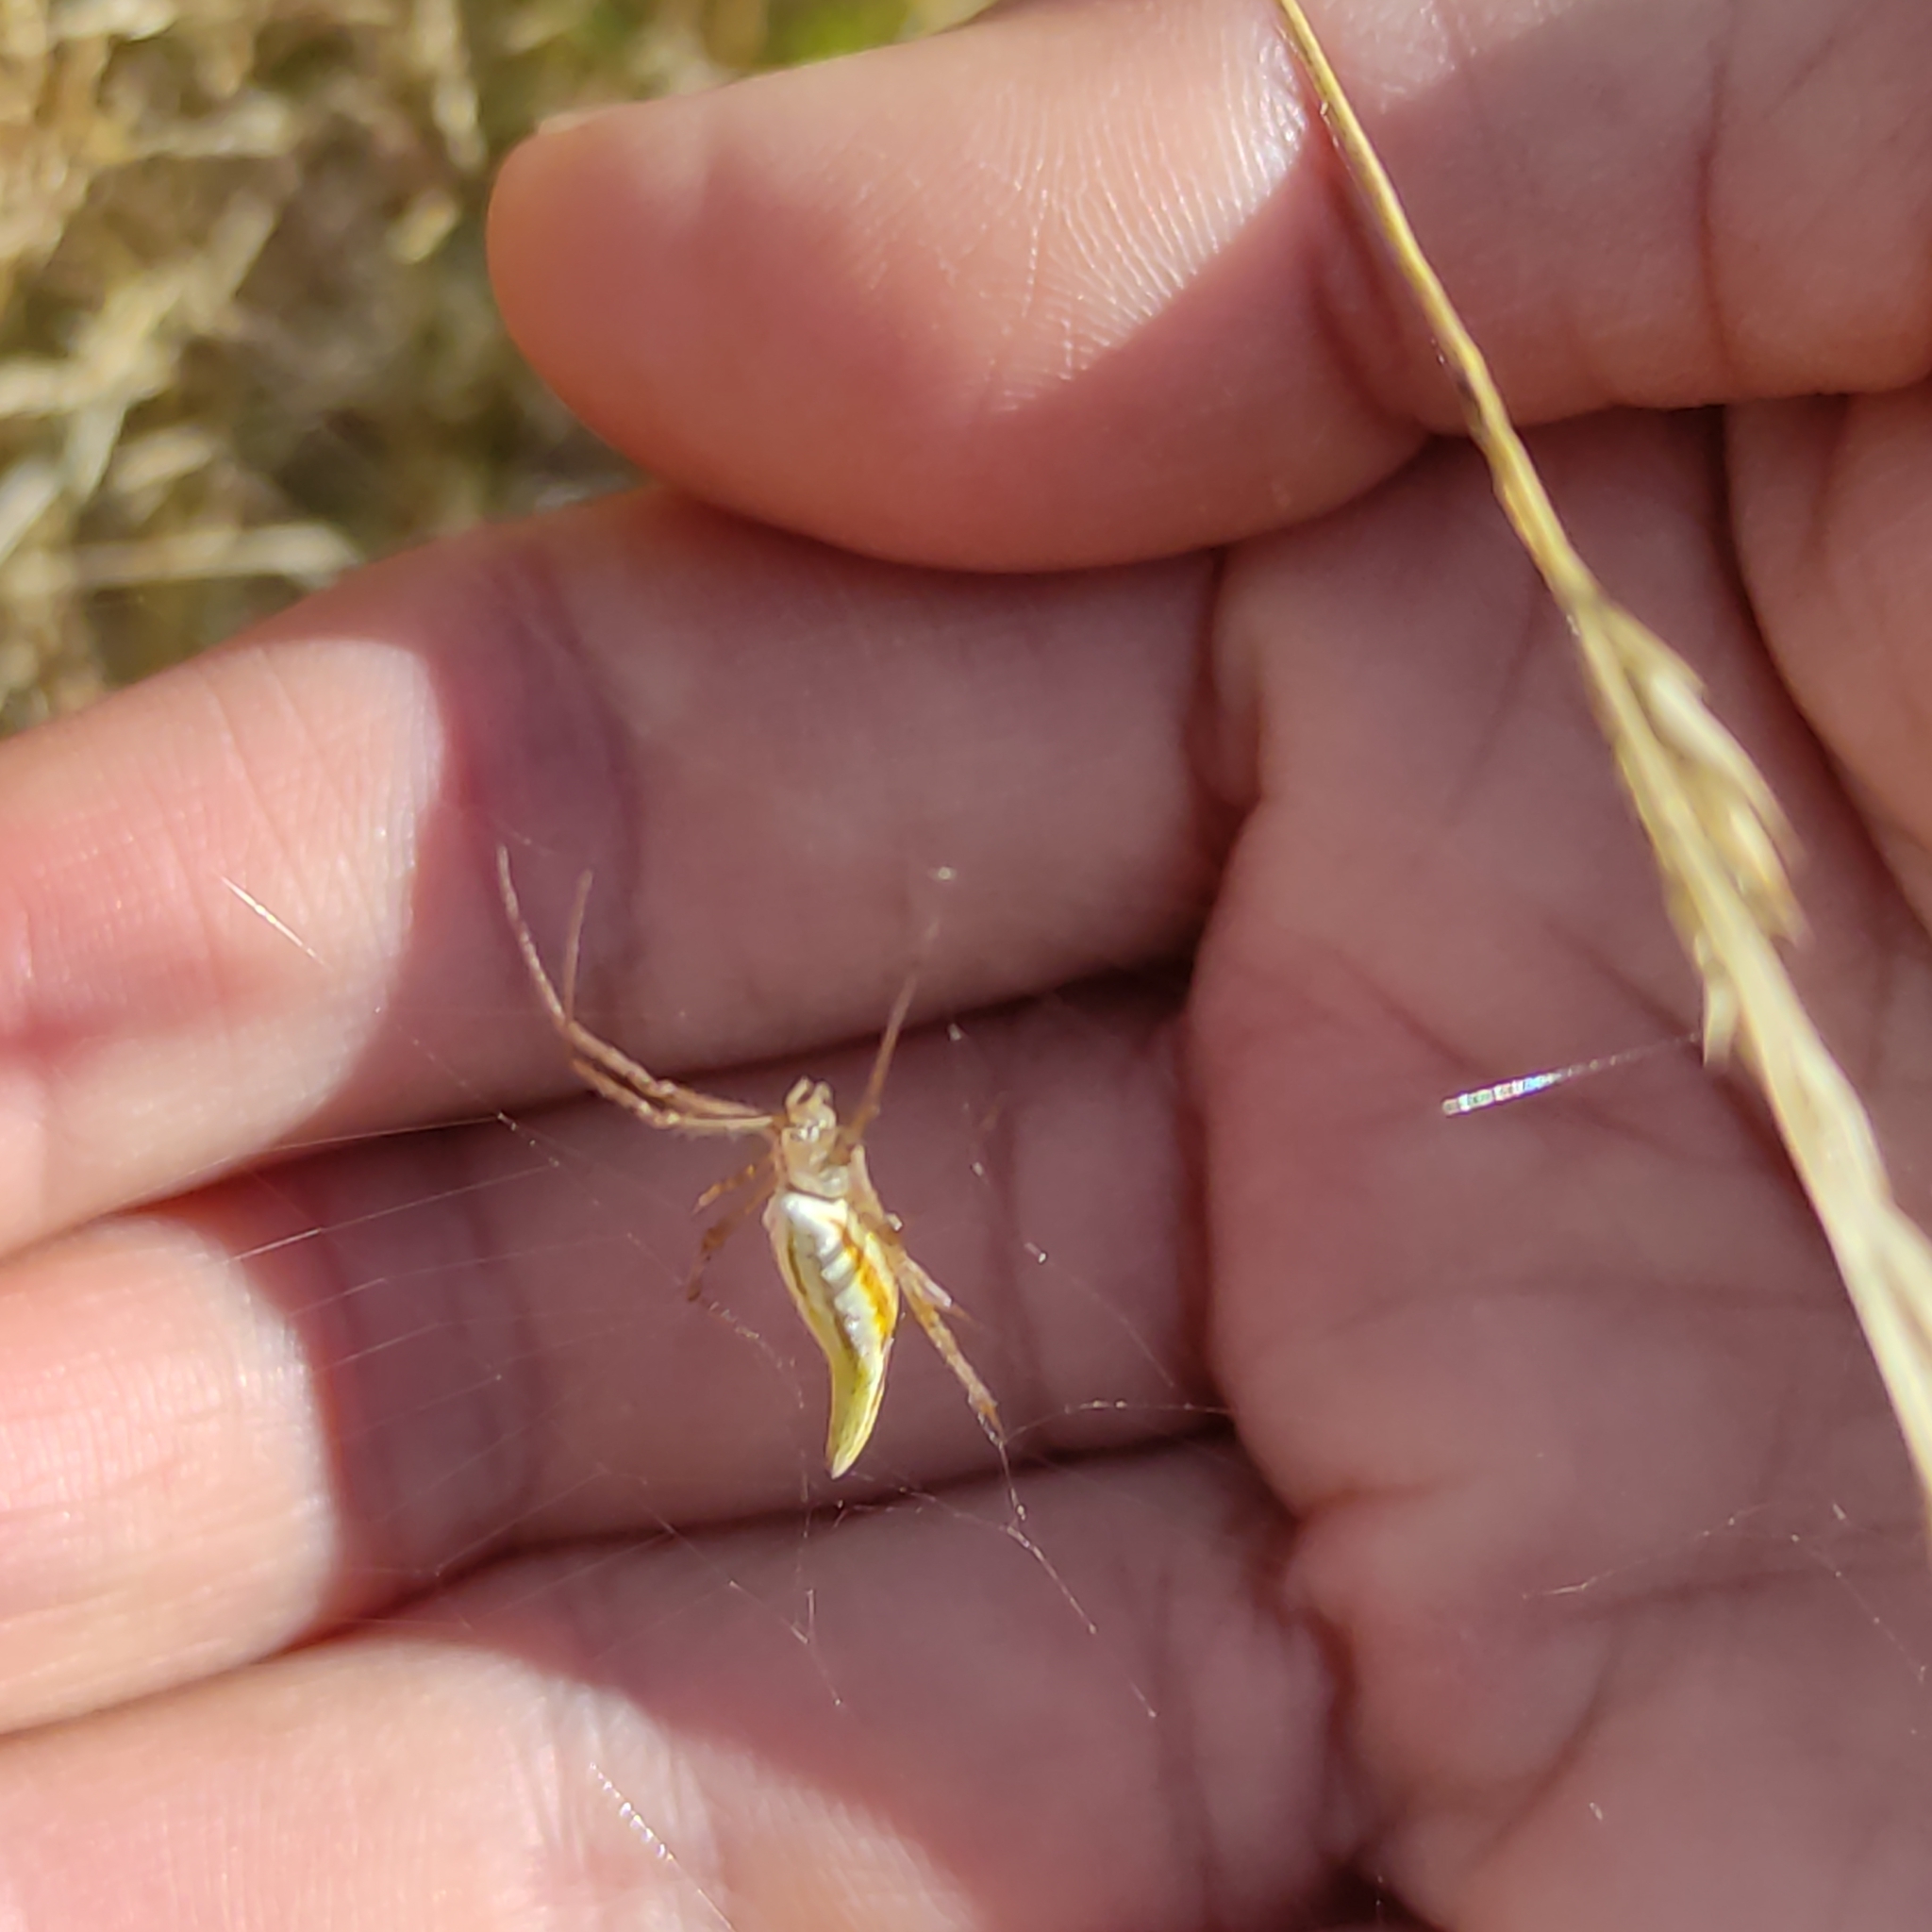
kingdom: Animalia
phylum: Arthropoda
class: Arachnida
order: Araneae
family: Araneidae
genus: Argiope
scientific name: Argiope protensa
